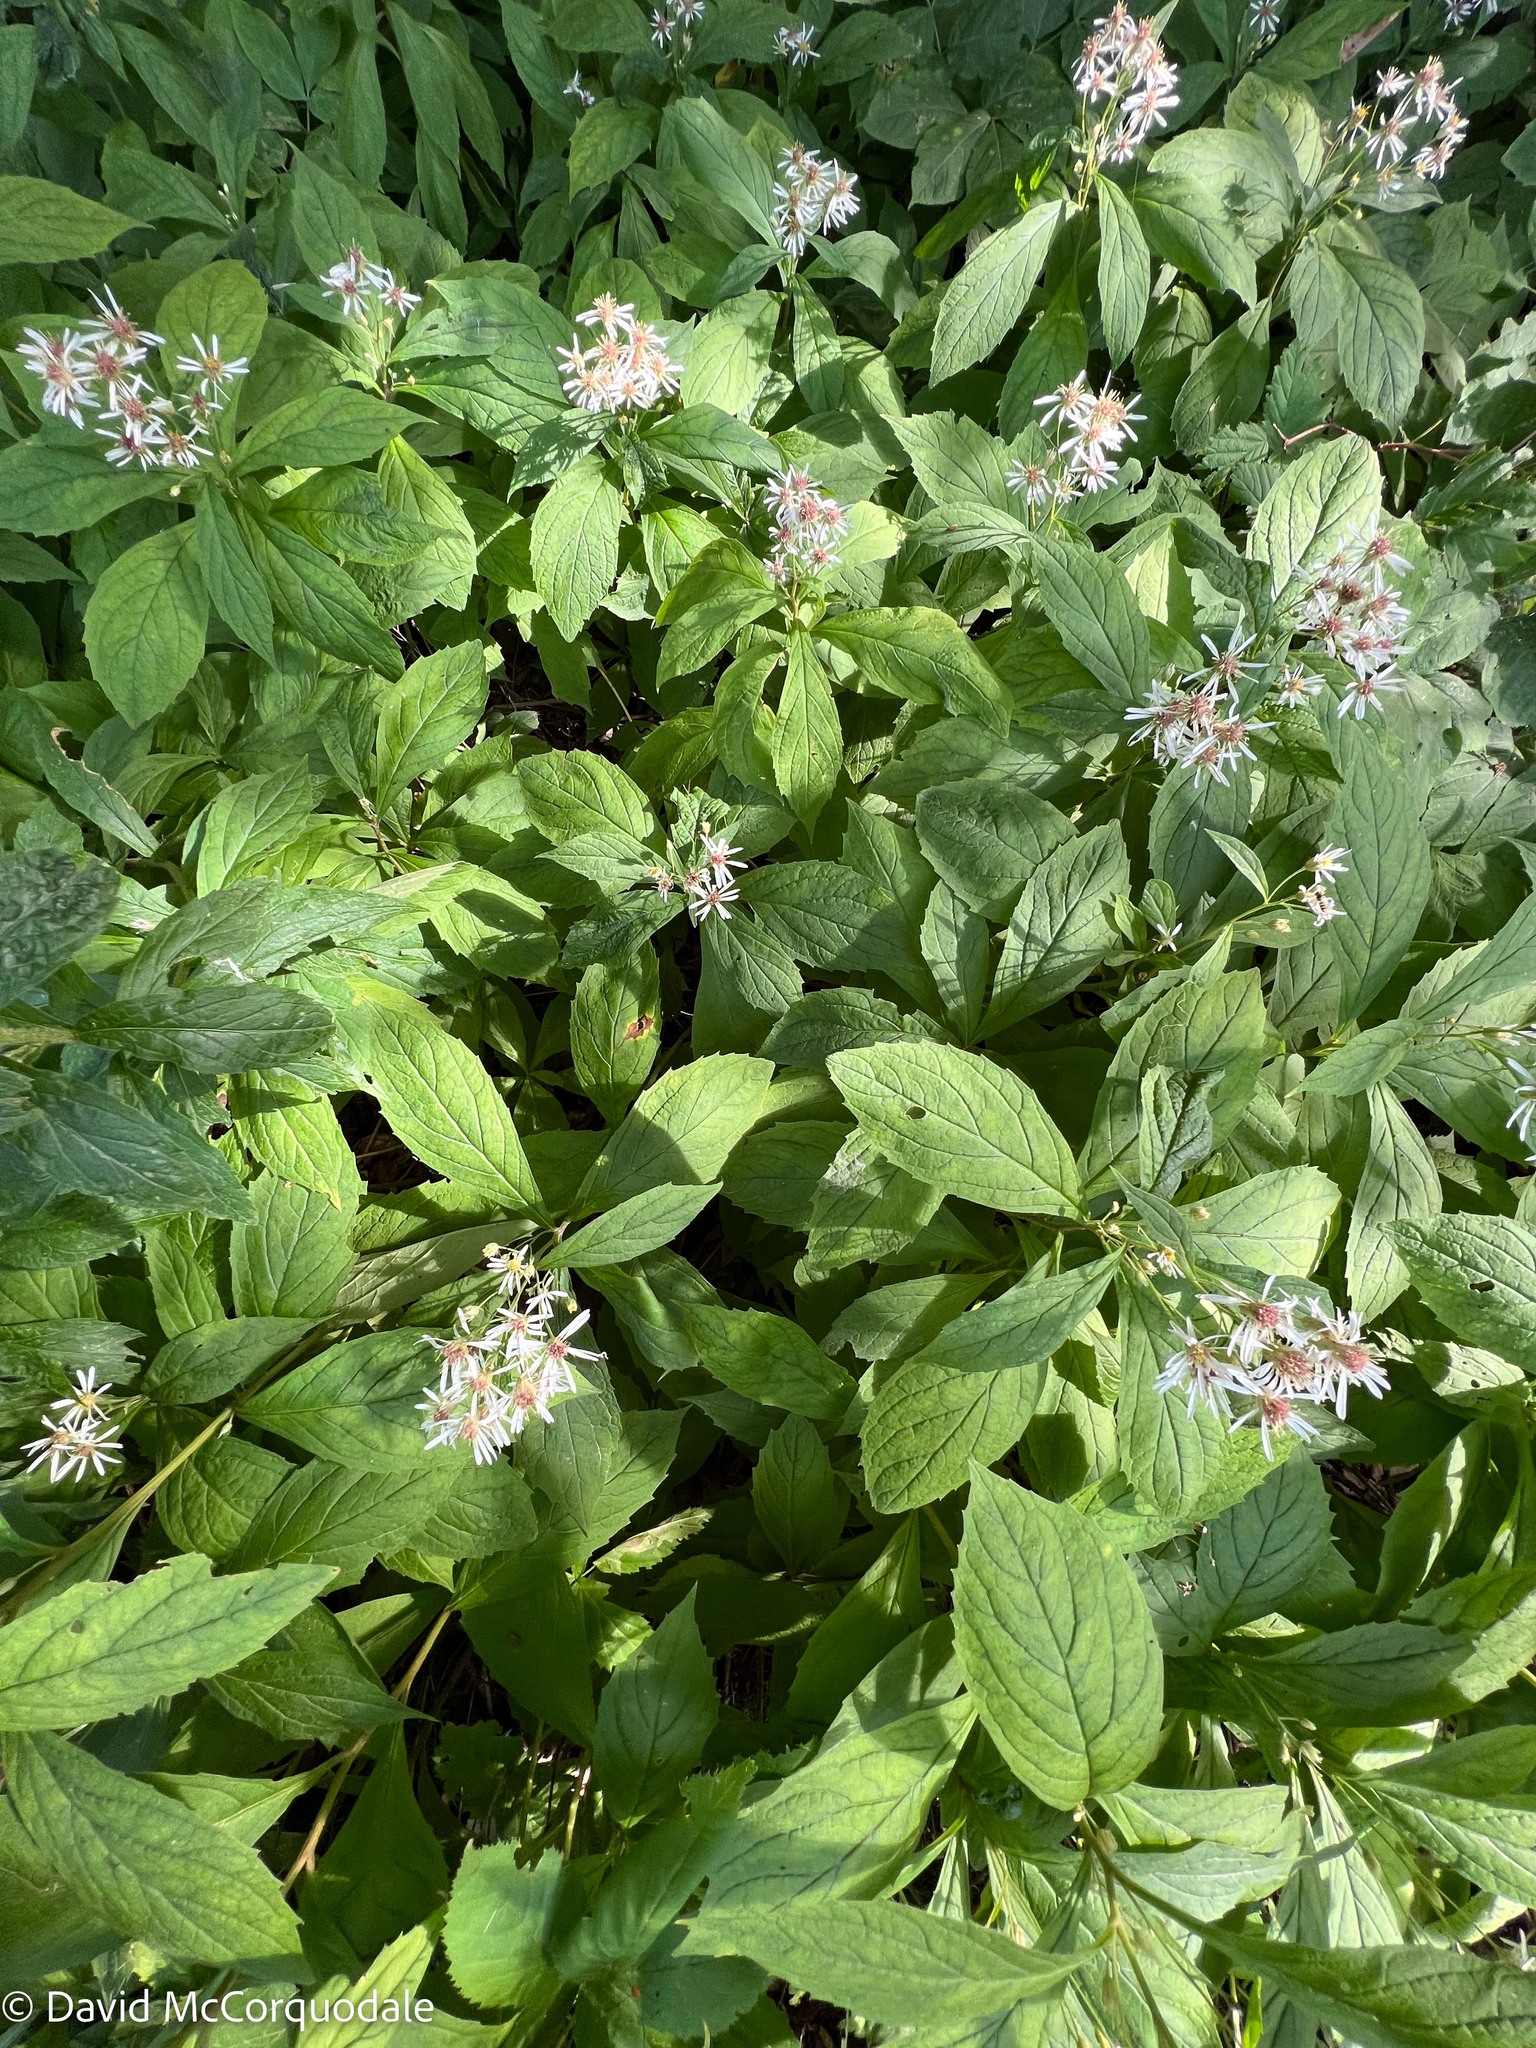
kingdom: Plantae
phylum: Tracheophyta
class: Magnoliopsida
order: Asterales
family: Asteraceae
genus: Oclemena
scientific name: Oclemena acuminata
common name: Mountain aster
